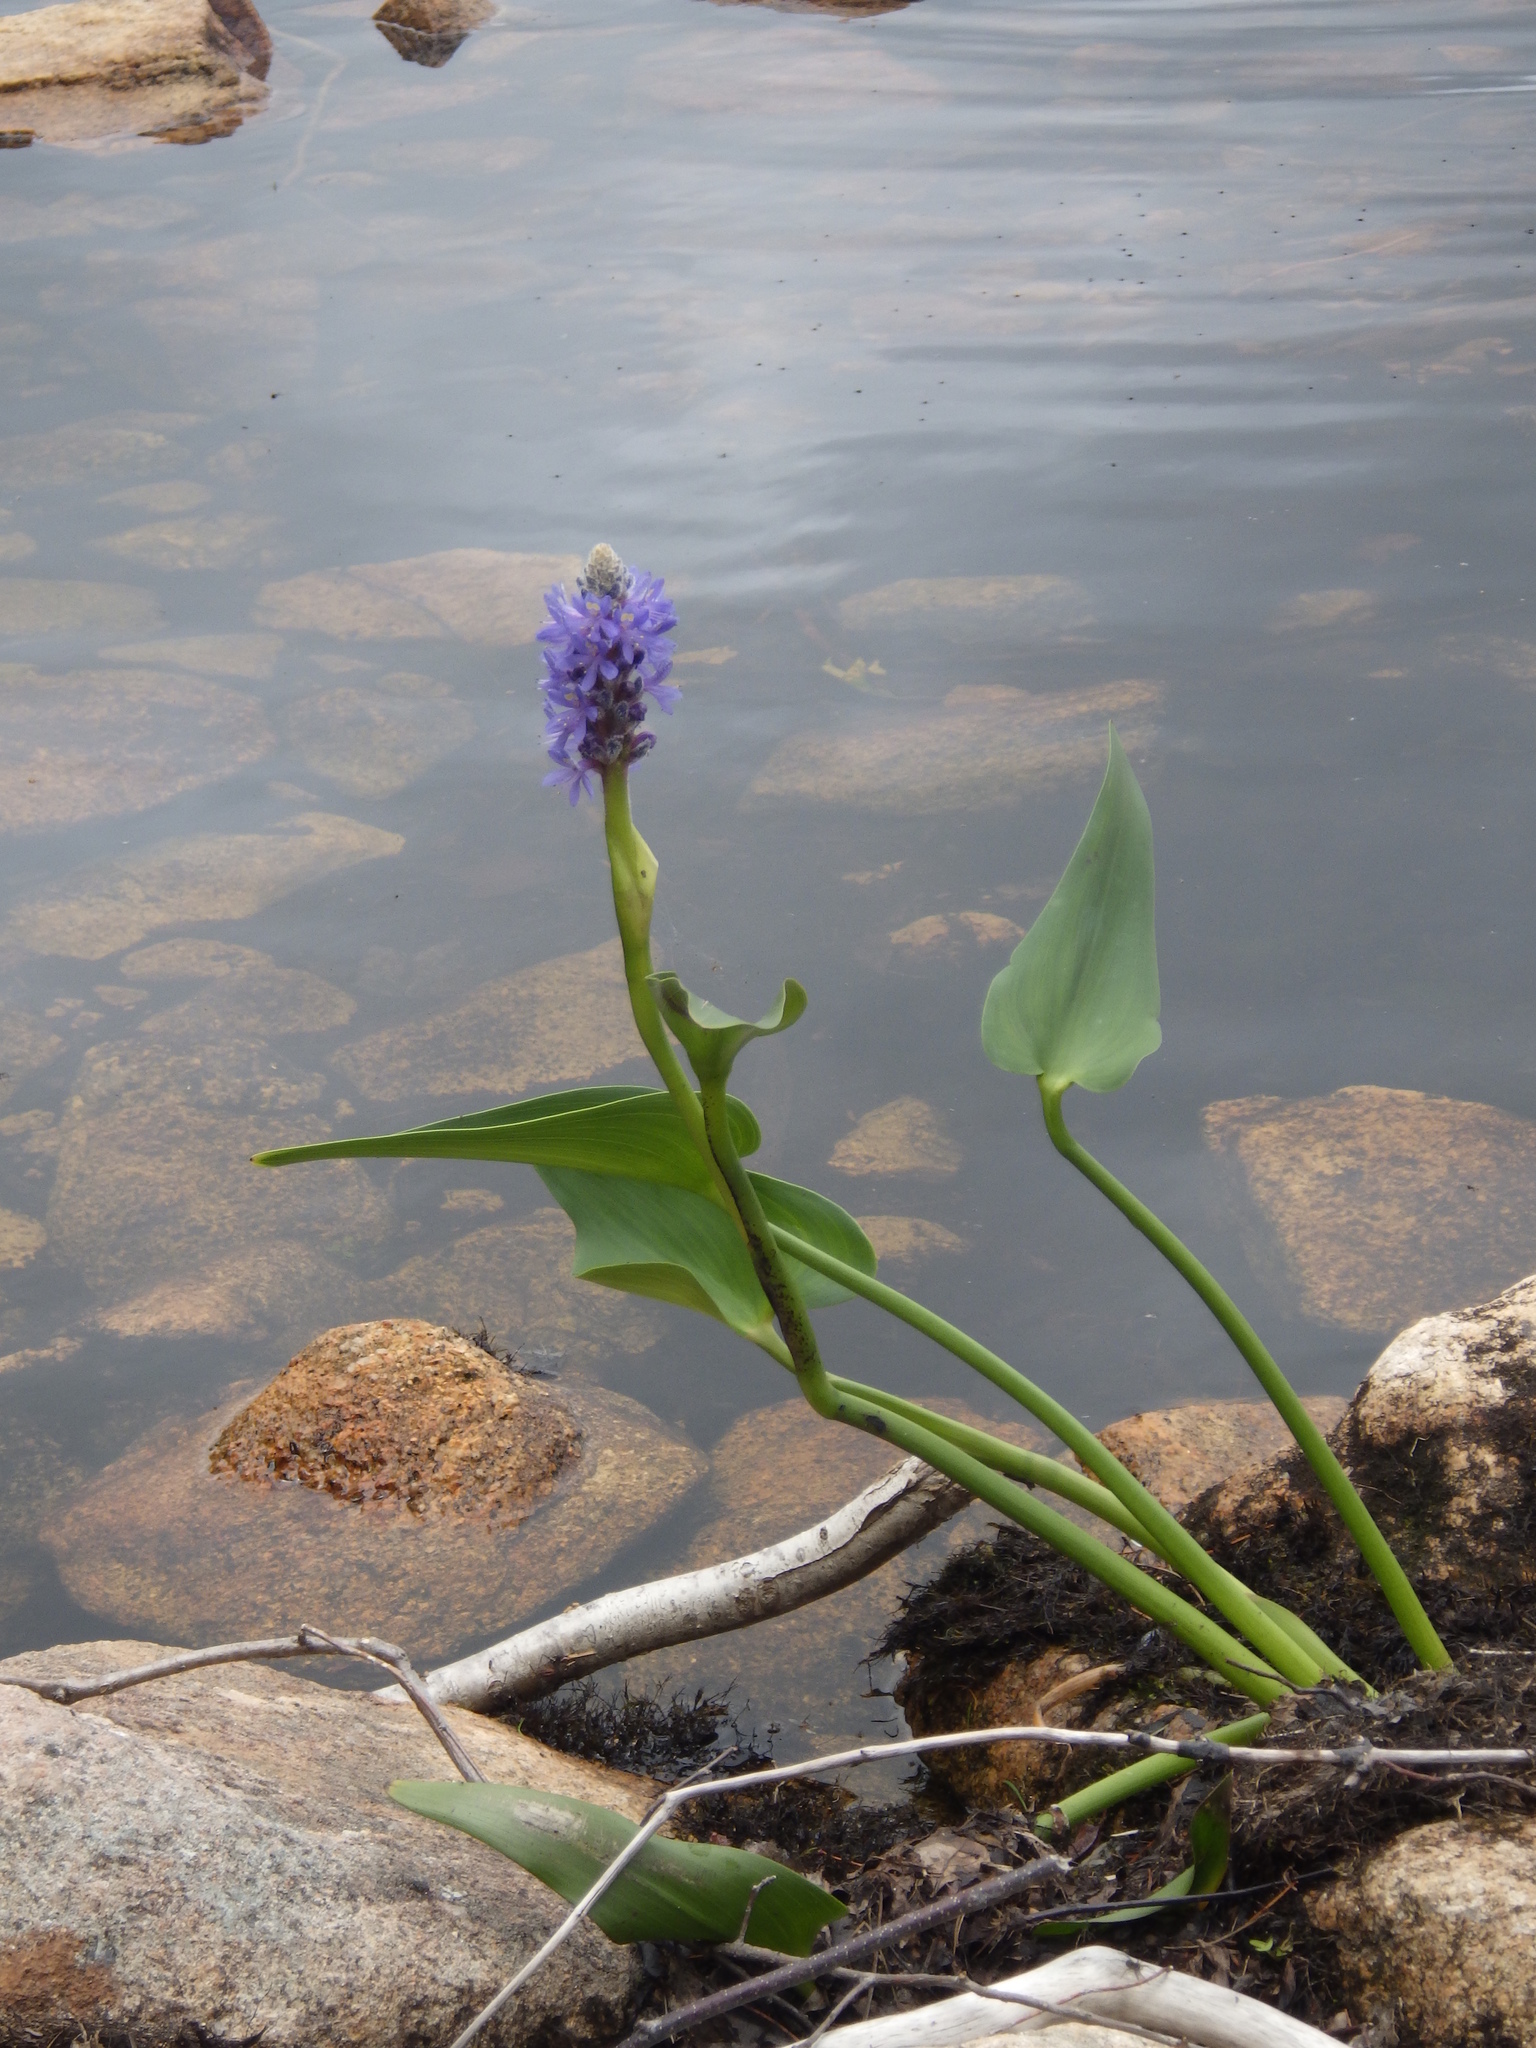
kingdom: Plantae
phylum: Tracheophyta
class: Liliopsida
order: Commelinales
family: Pontederiaceae
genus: Pontederia
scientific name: Pontederia cordata
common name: Pickerelweed
